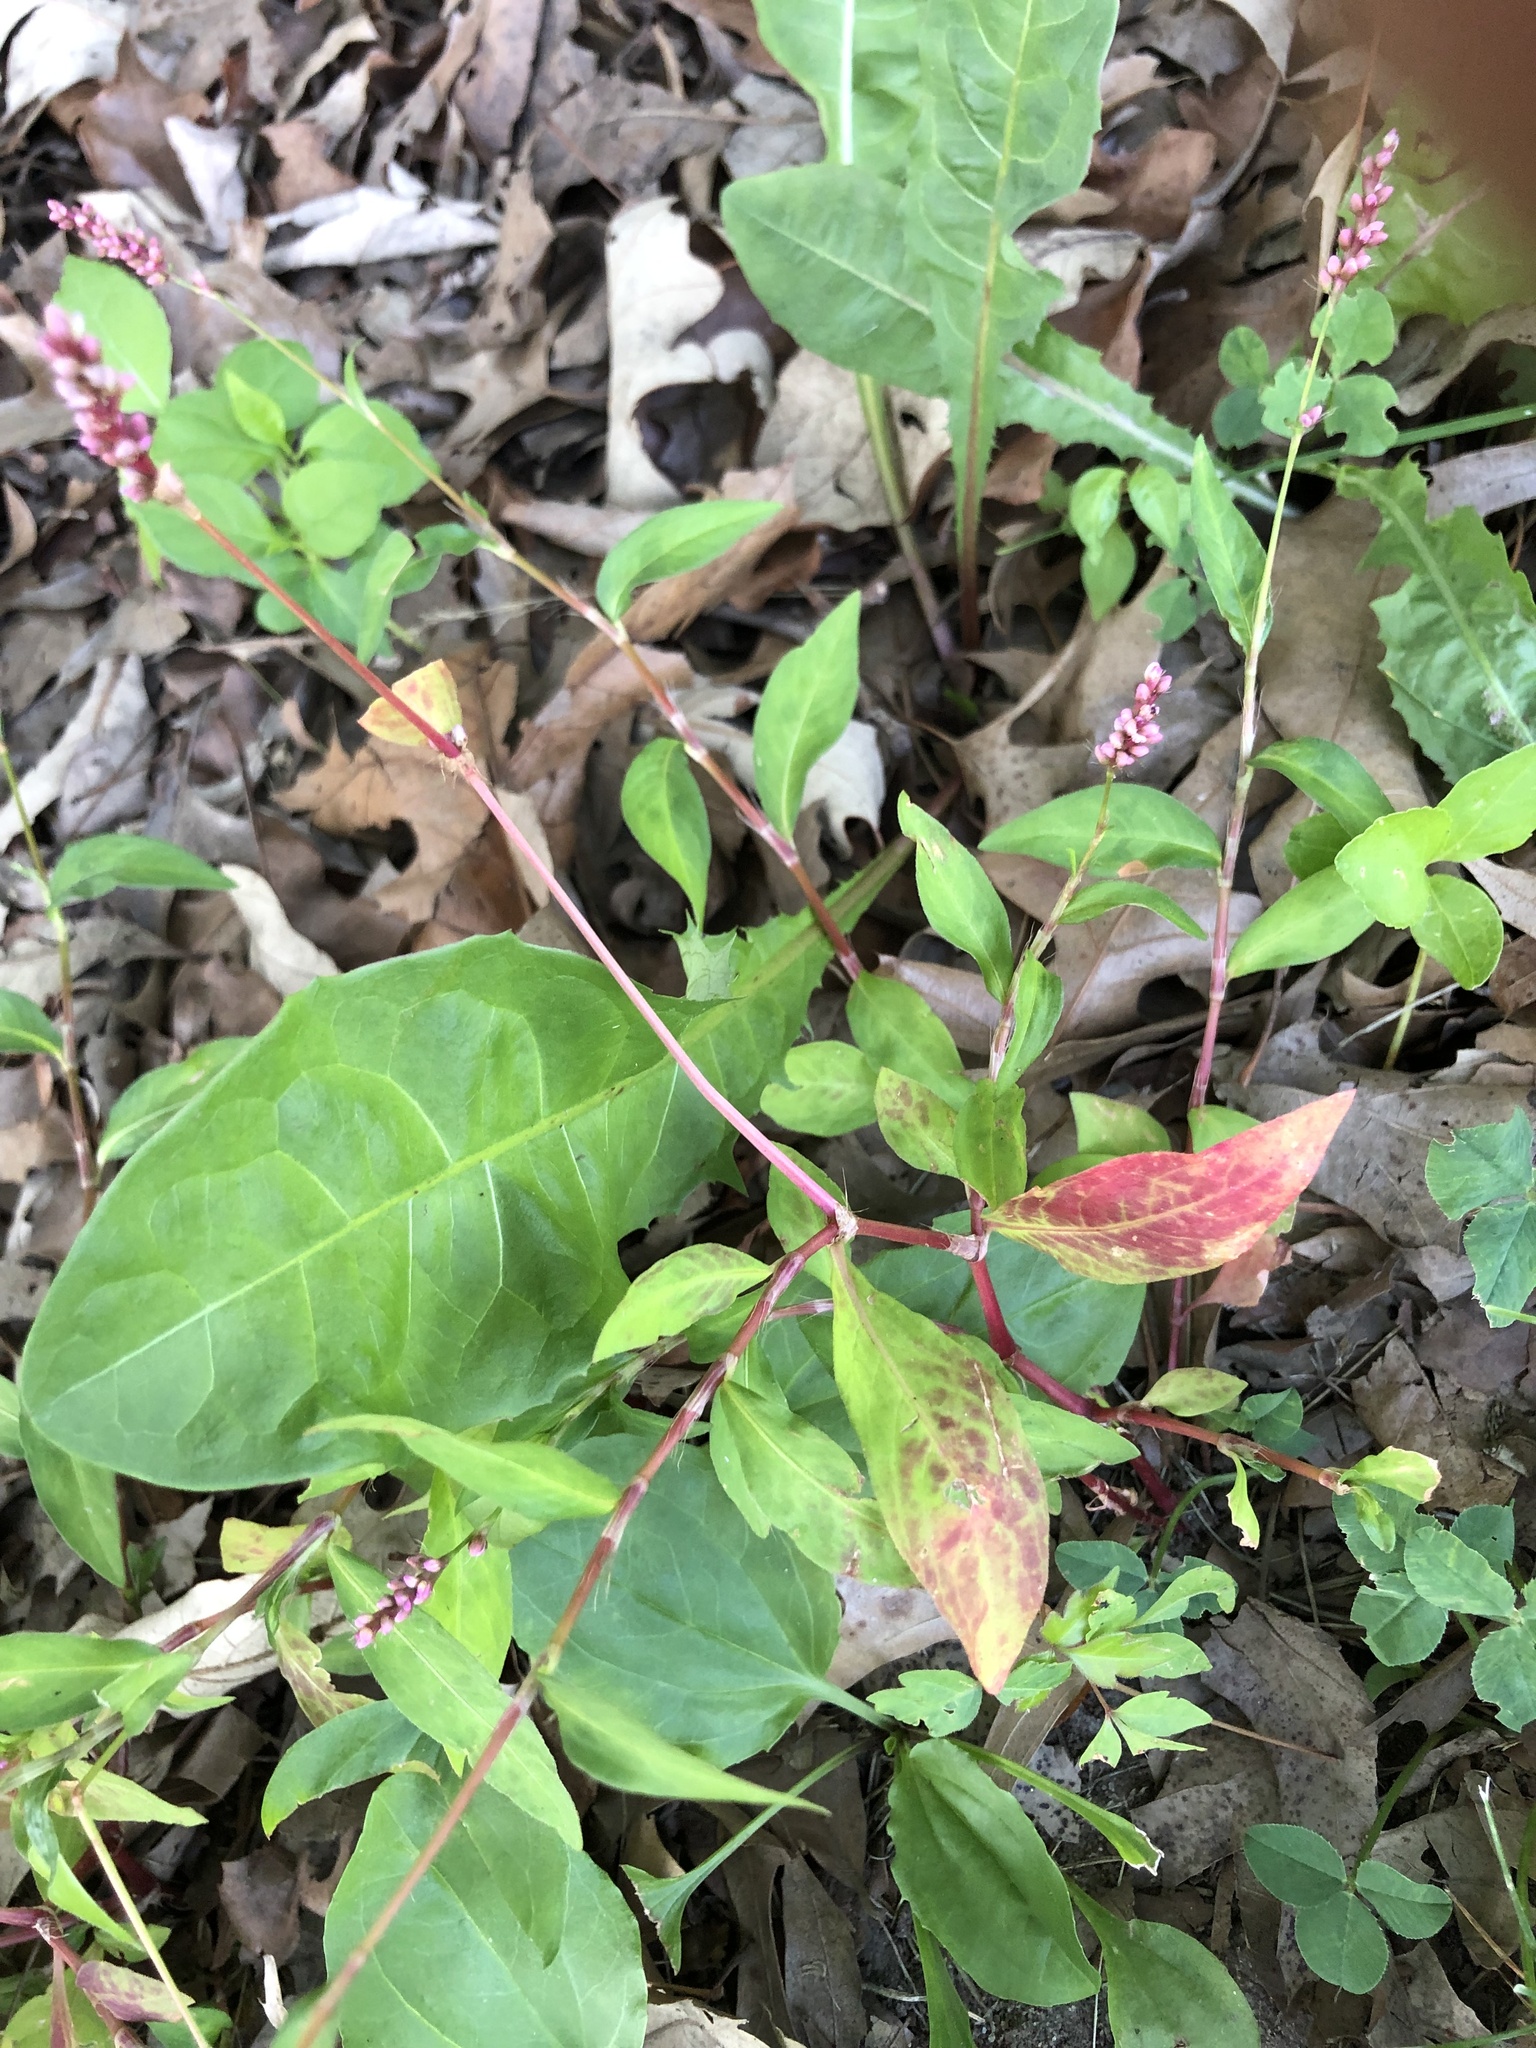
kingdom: Plantae
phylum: Tracheophyta
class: Magnoliopsida
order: Caryophyllales
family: Polygonaceae
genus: Persicaria
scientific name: Persicaria longiseta
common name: Bristly lady's-thumb
